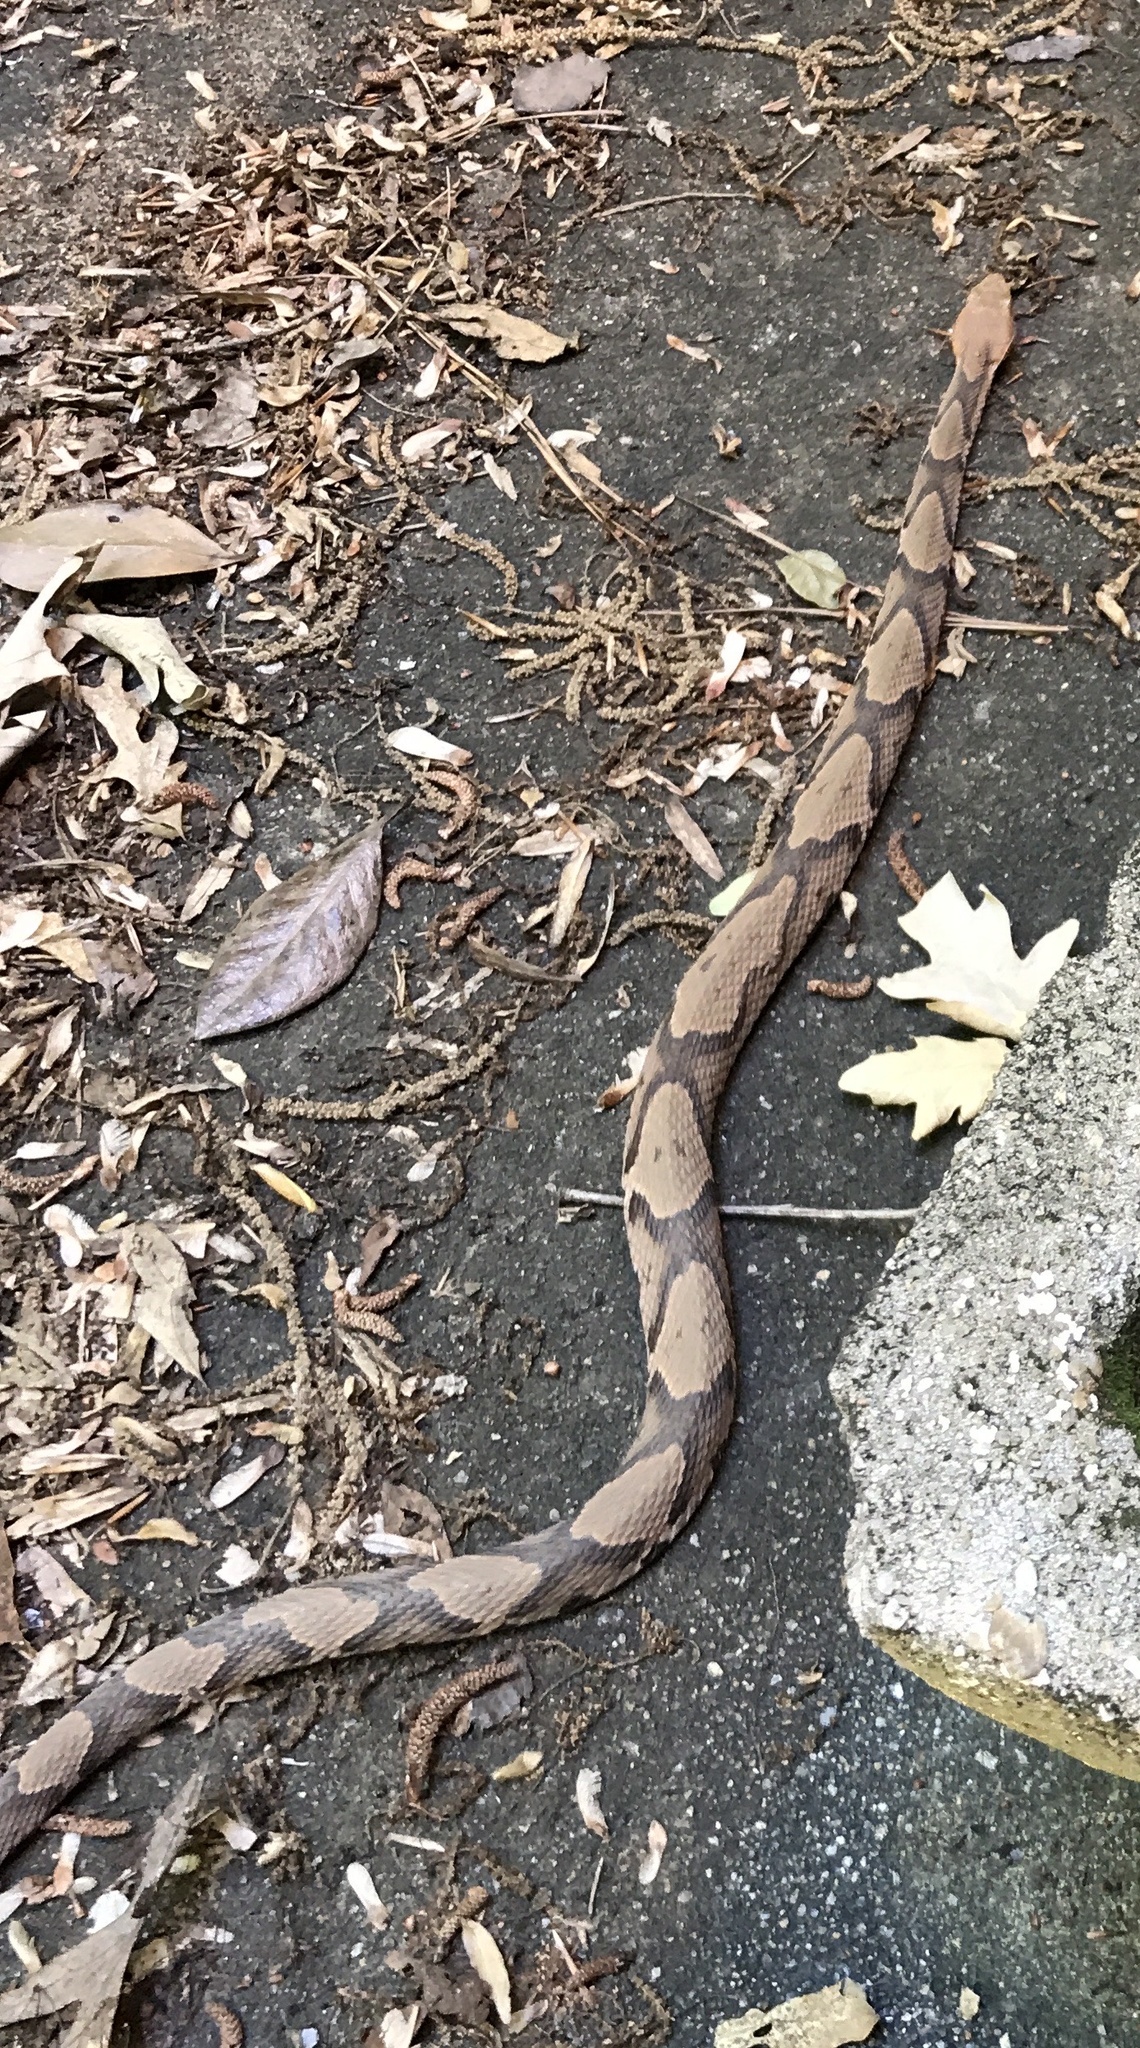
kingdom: Animalia
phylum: Chordata
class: Squamata
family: Viperidae
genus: Agkistrodon
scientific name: Agkistrodon contortrix
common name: Northern copperhead
